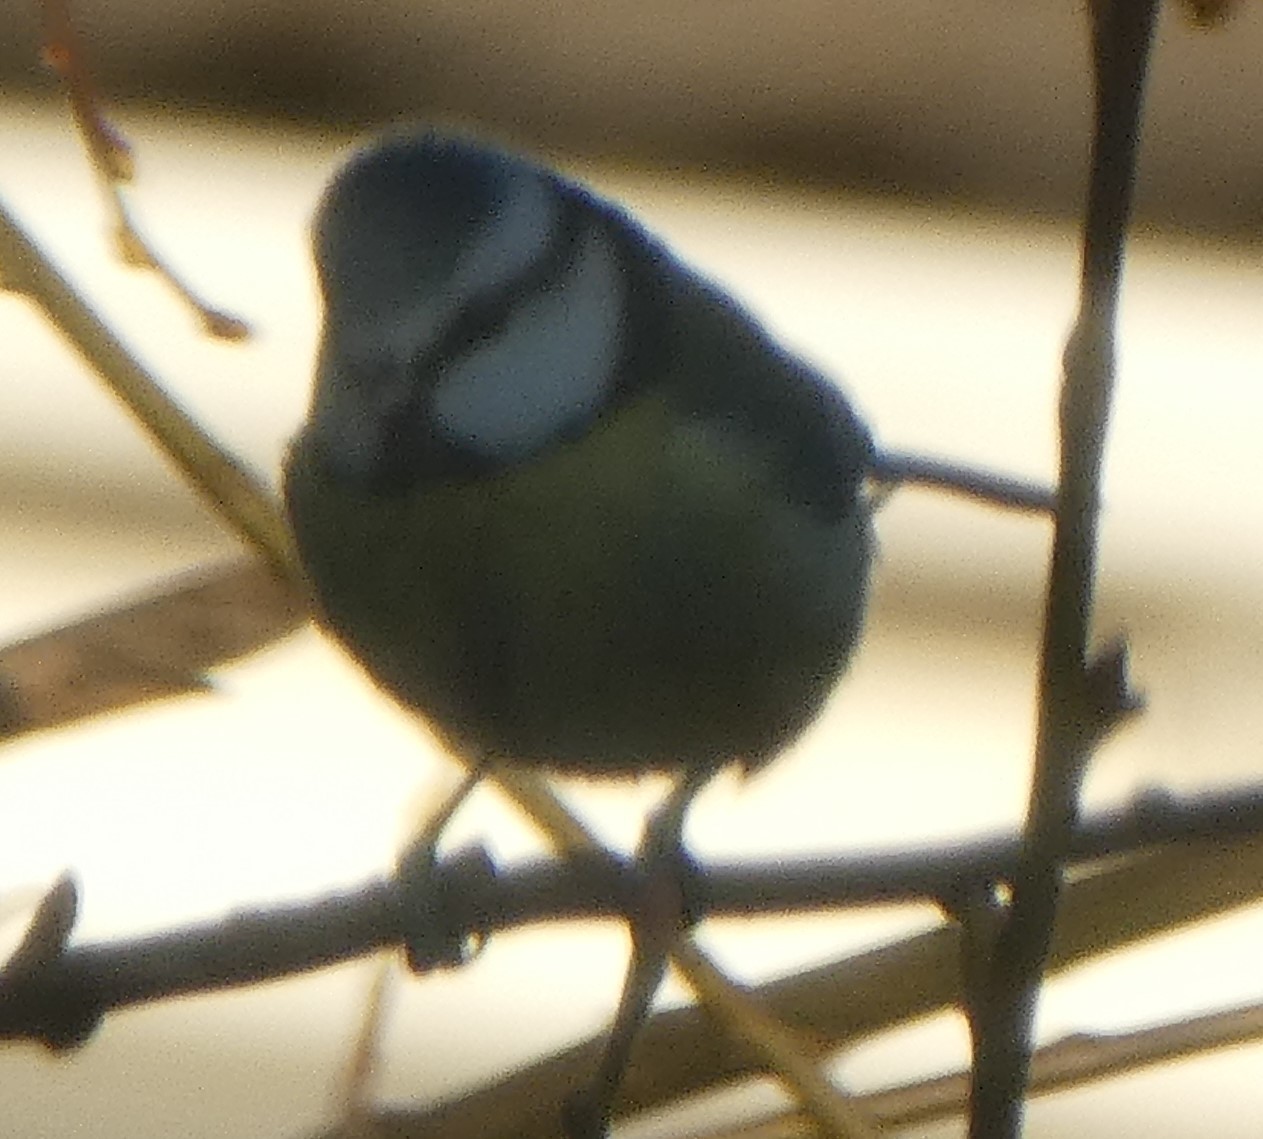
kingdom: Animalia
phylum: Chordata
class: Aves
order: Passeriformes
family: Paridae
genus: Cyanistes
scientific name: Cyanistes caeruleus
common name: Eurasian blue tit
